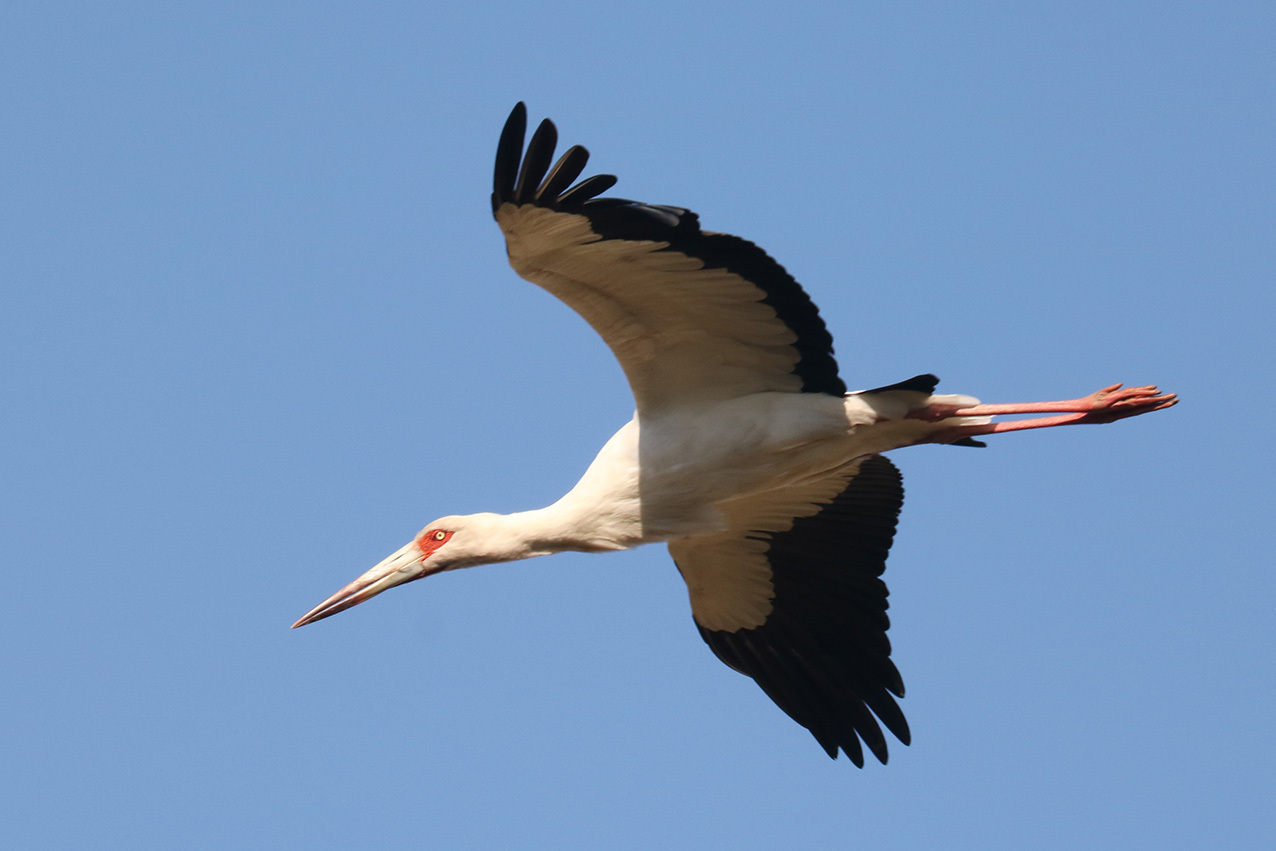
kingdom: Animalia
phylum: Chordata
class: Aves
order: Ciconiiformes
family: Ciconiidae
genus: Ciconia
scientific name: Ciconia maguari
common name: Maguari stork
